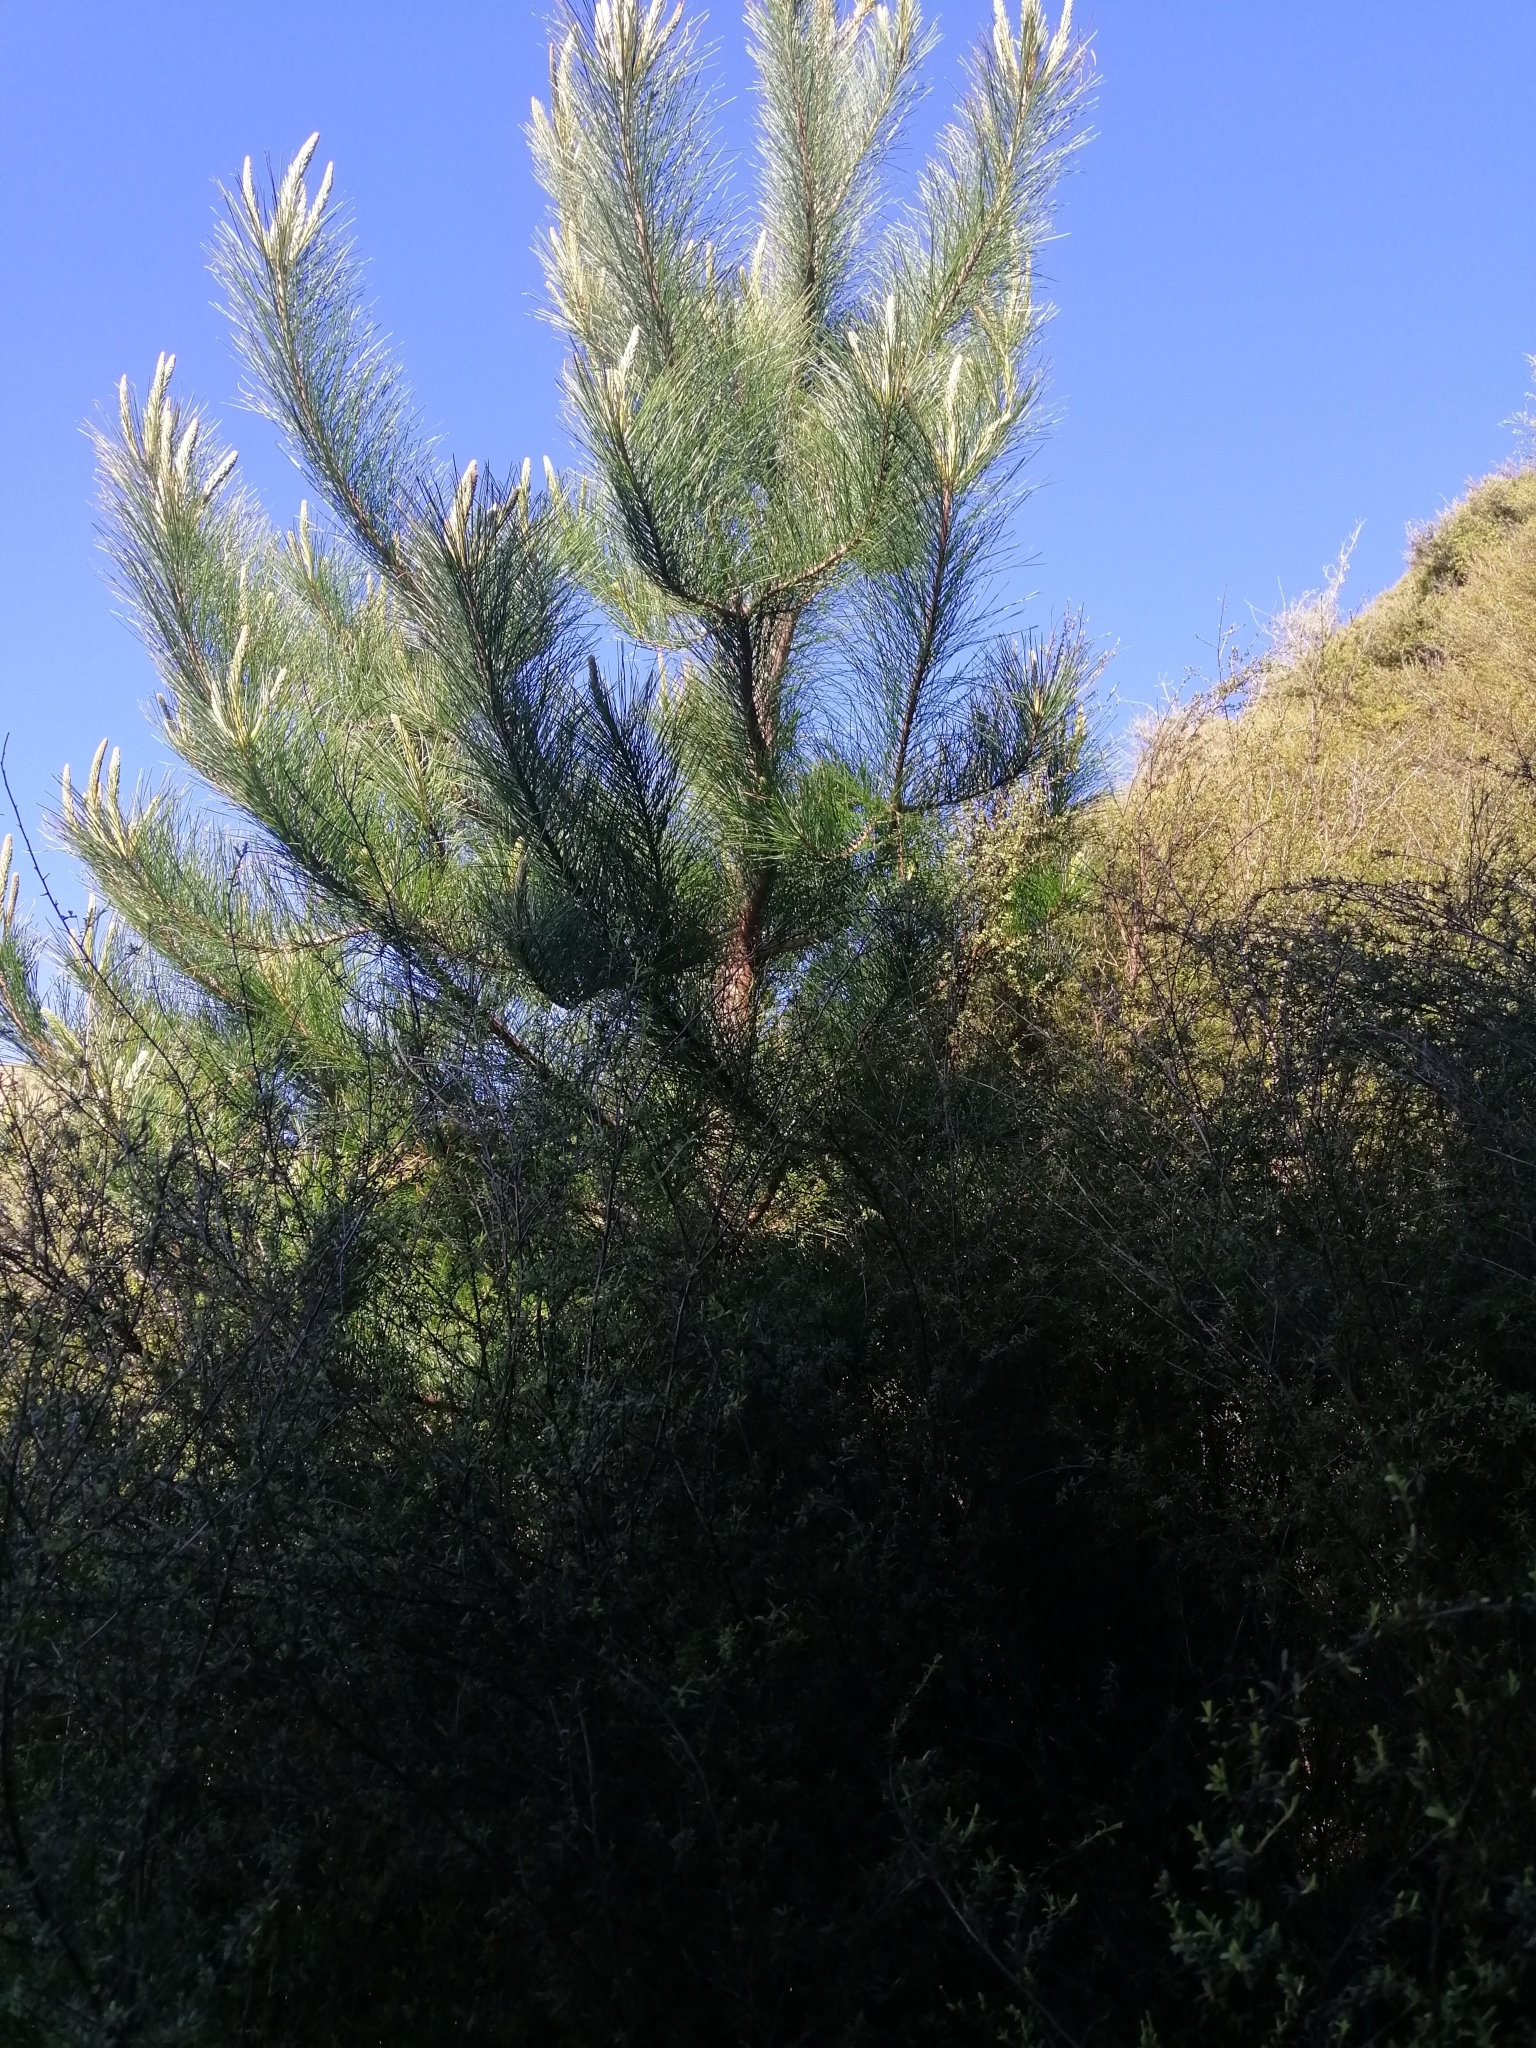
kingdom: Plantae
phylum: Tracheophyta
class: Pinopsida
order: Pinales
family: Pinaceae
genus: Pinus
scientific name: Pinus radiata
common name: Monterey pine
